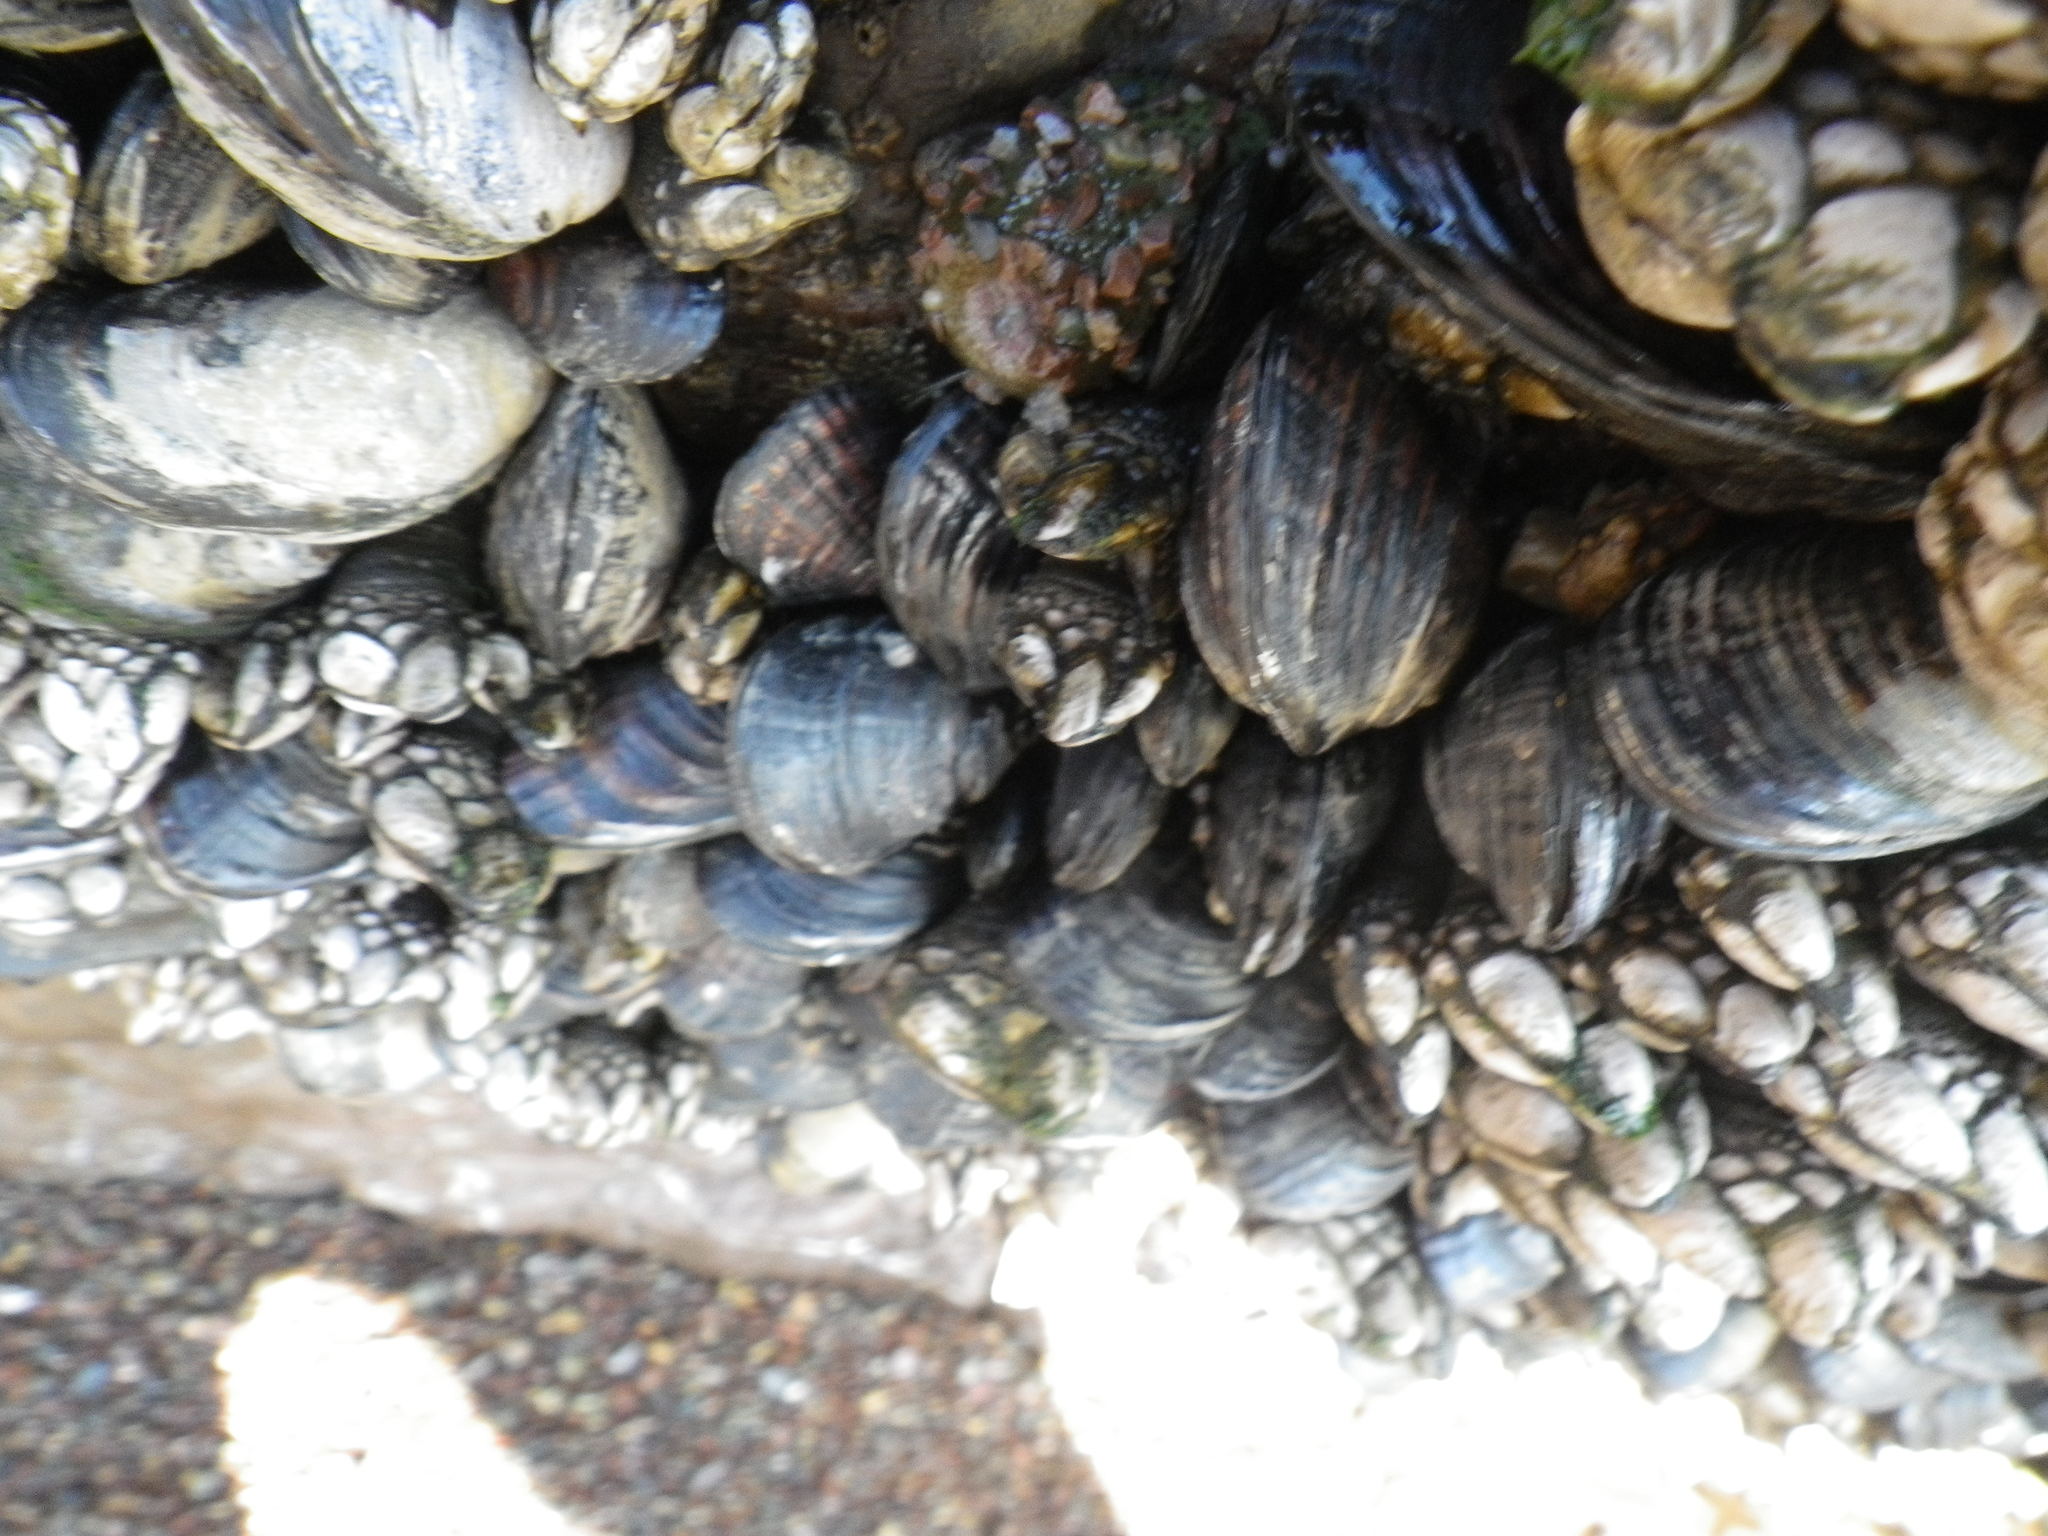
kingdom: Animalia
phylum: Mollusca
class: Bivalvia
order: Mytilida
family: Mytilidae
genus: Mytilus
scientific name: Mytilus californianus
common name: California mussel
